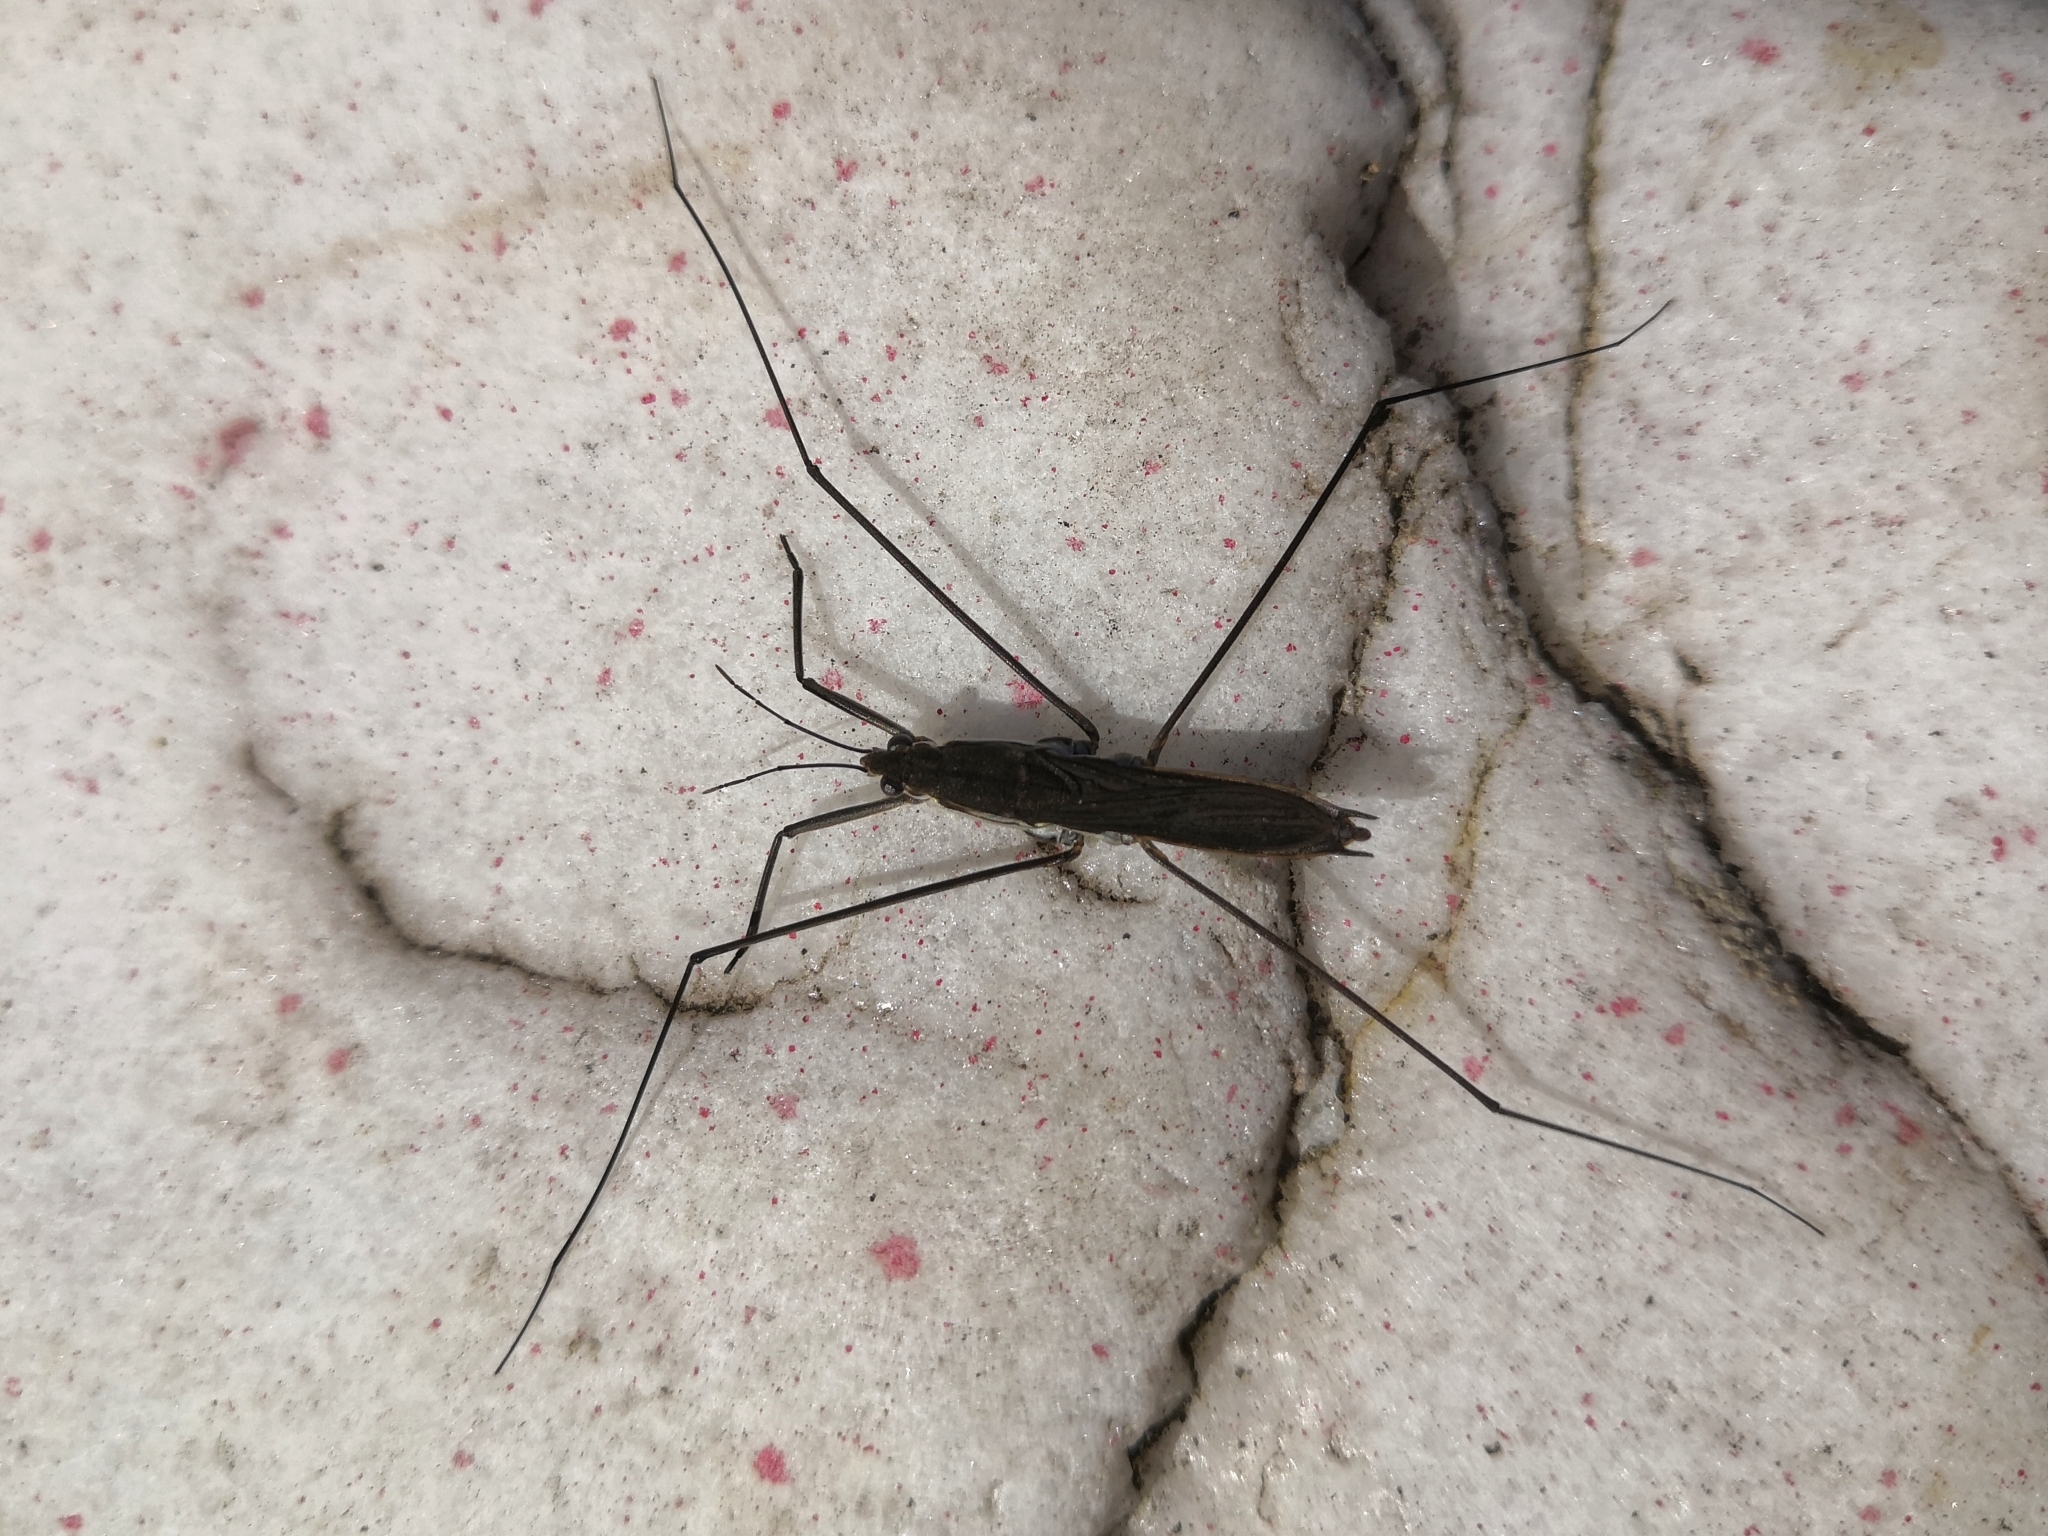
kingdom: Animalia
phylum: Arthropoda
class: Insecta
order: Hemiptera
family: Gerridae
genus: Aquarius
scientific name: Aquarius paludum
